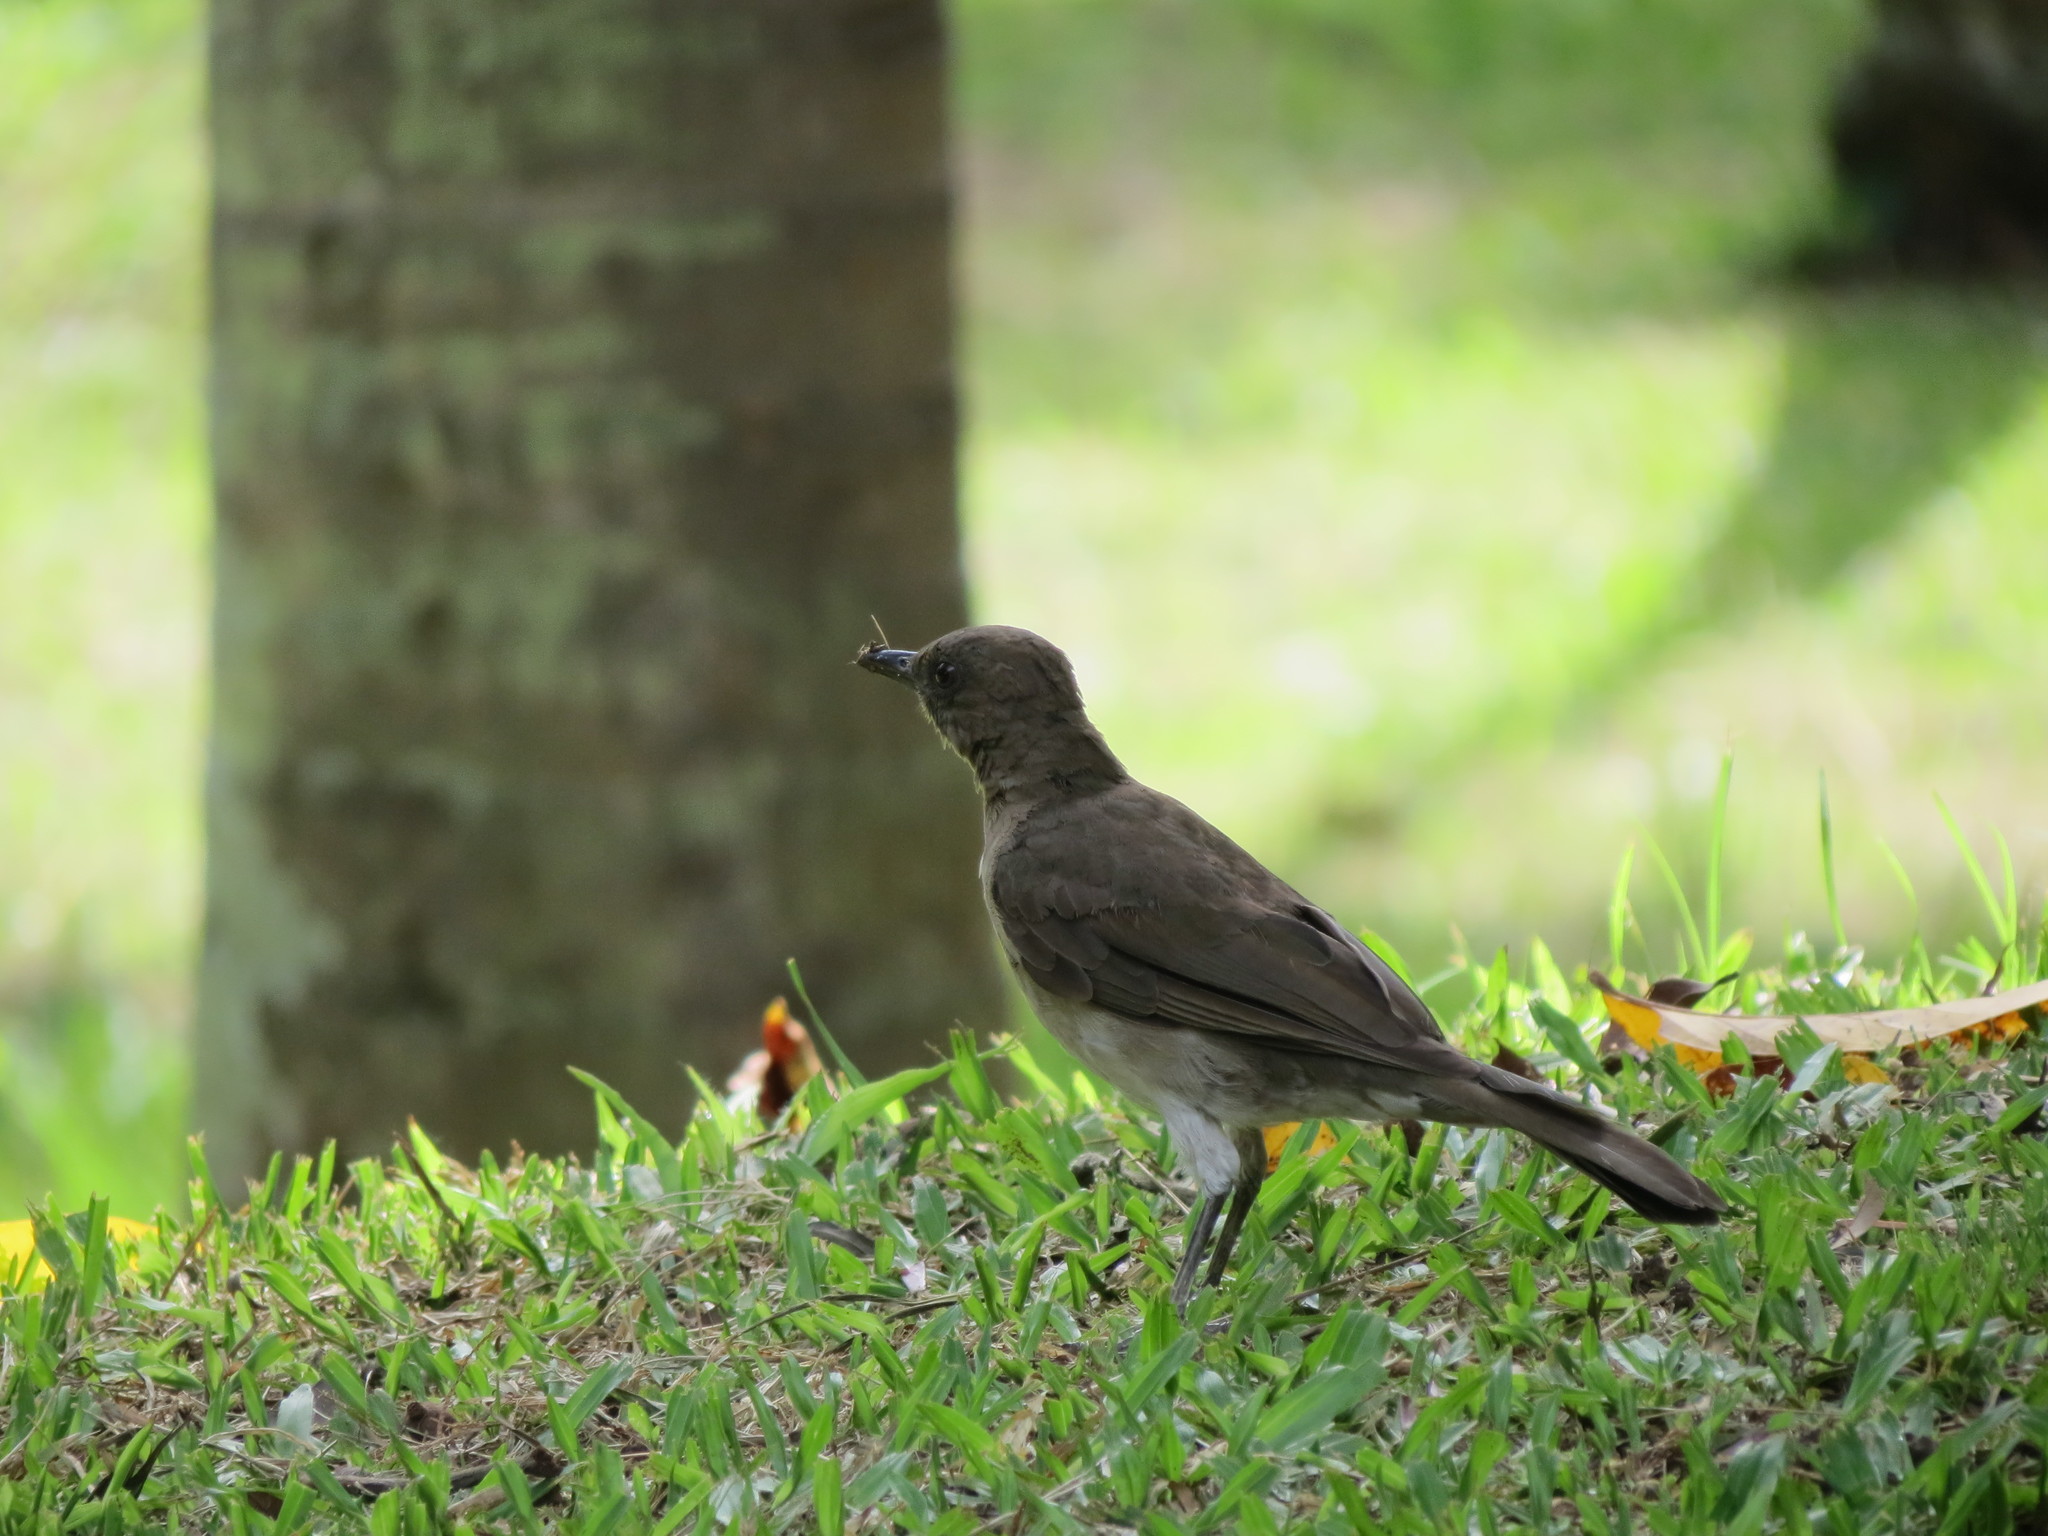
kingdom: Animalia
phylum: Chordata
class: Aves
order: Passeriformes
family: Turdidae
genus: Turdus
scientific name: Turdus ignobilis
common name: Black-billed thrush
